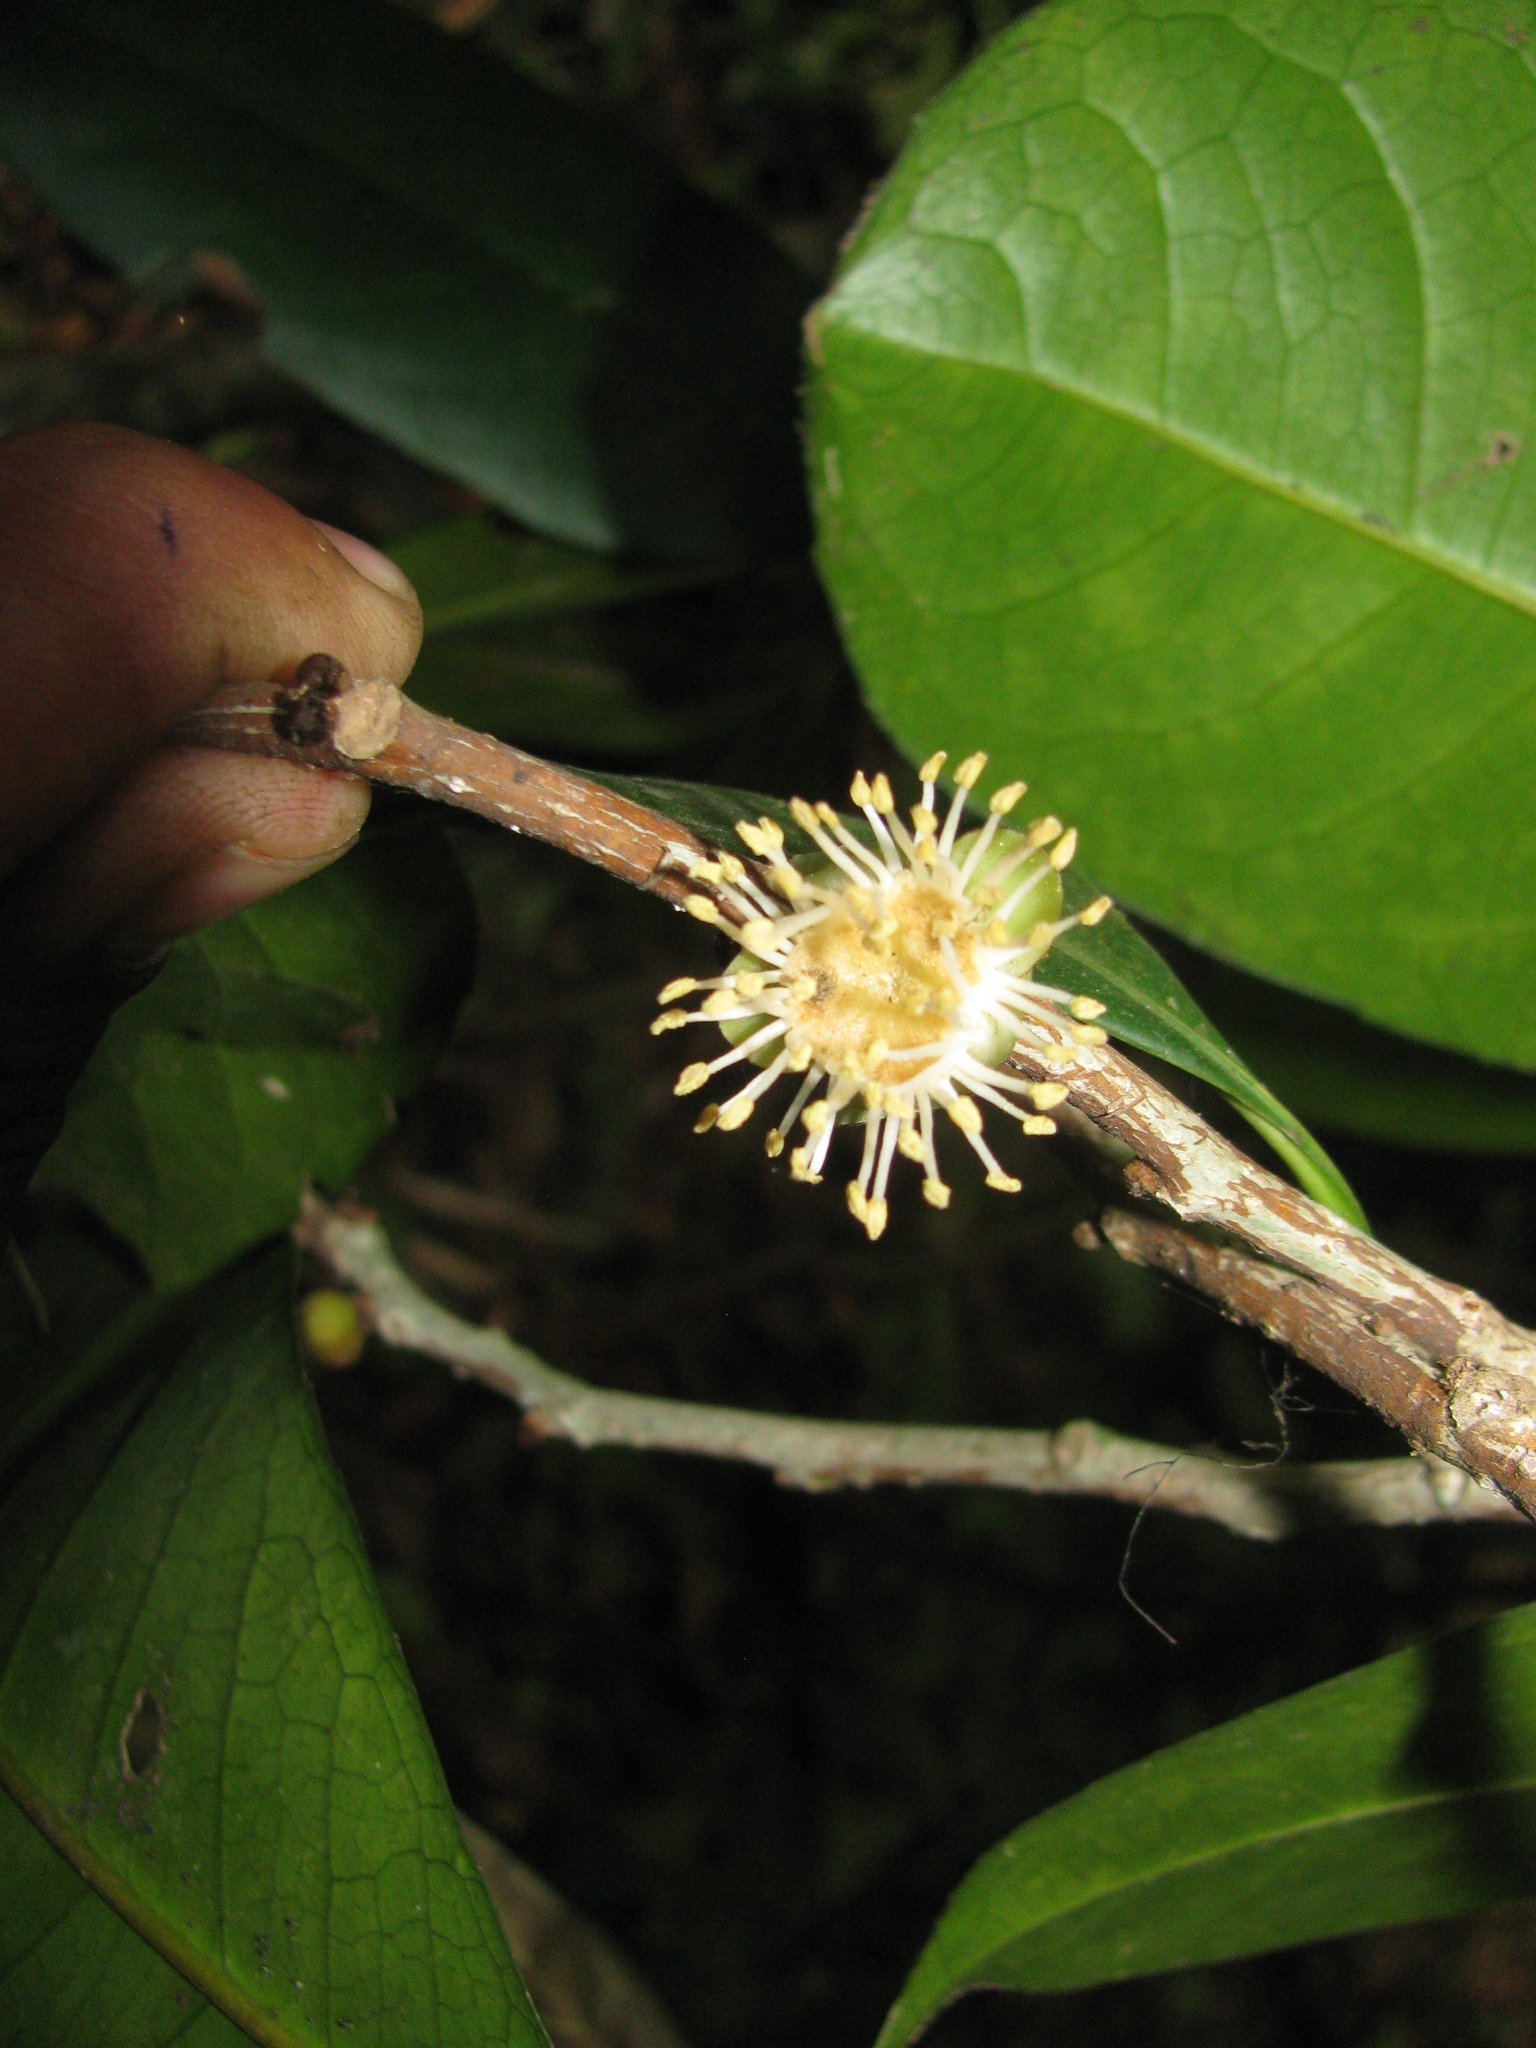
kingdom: Plantae
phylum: Tracheophyta
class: Magnoliopsida
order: Malpighiales
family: Putranjivaceae
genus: Drypetes
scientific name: Drypetes oblongifolia
